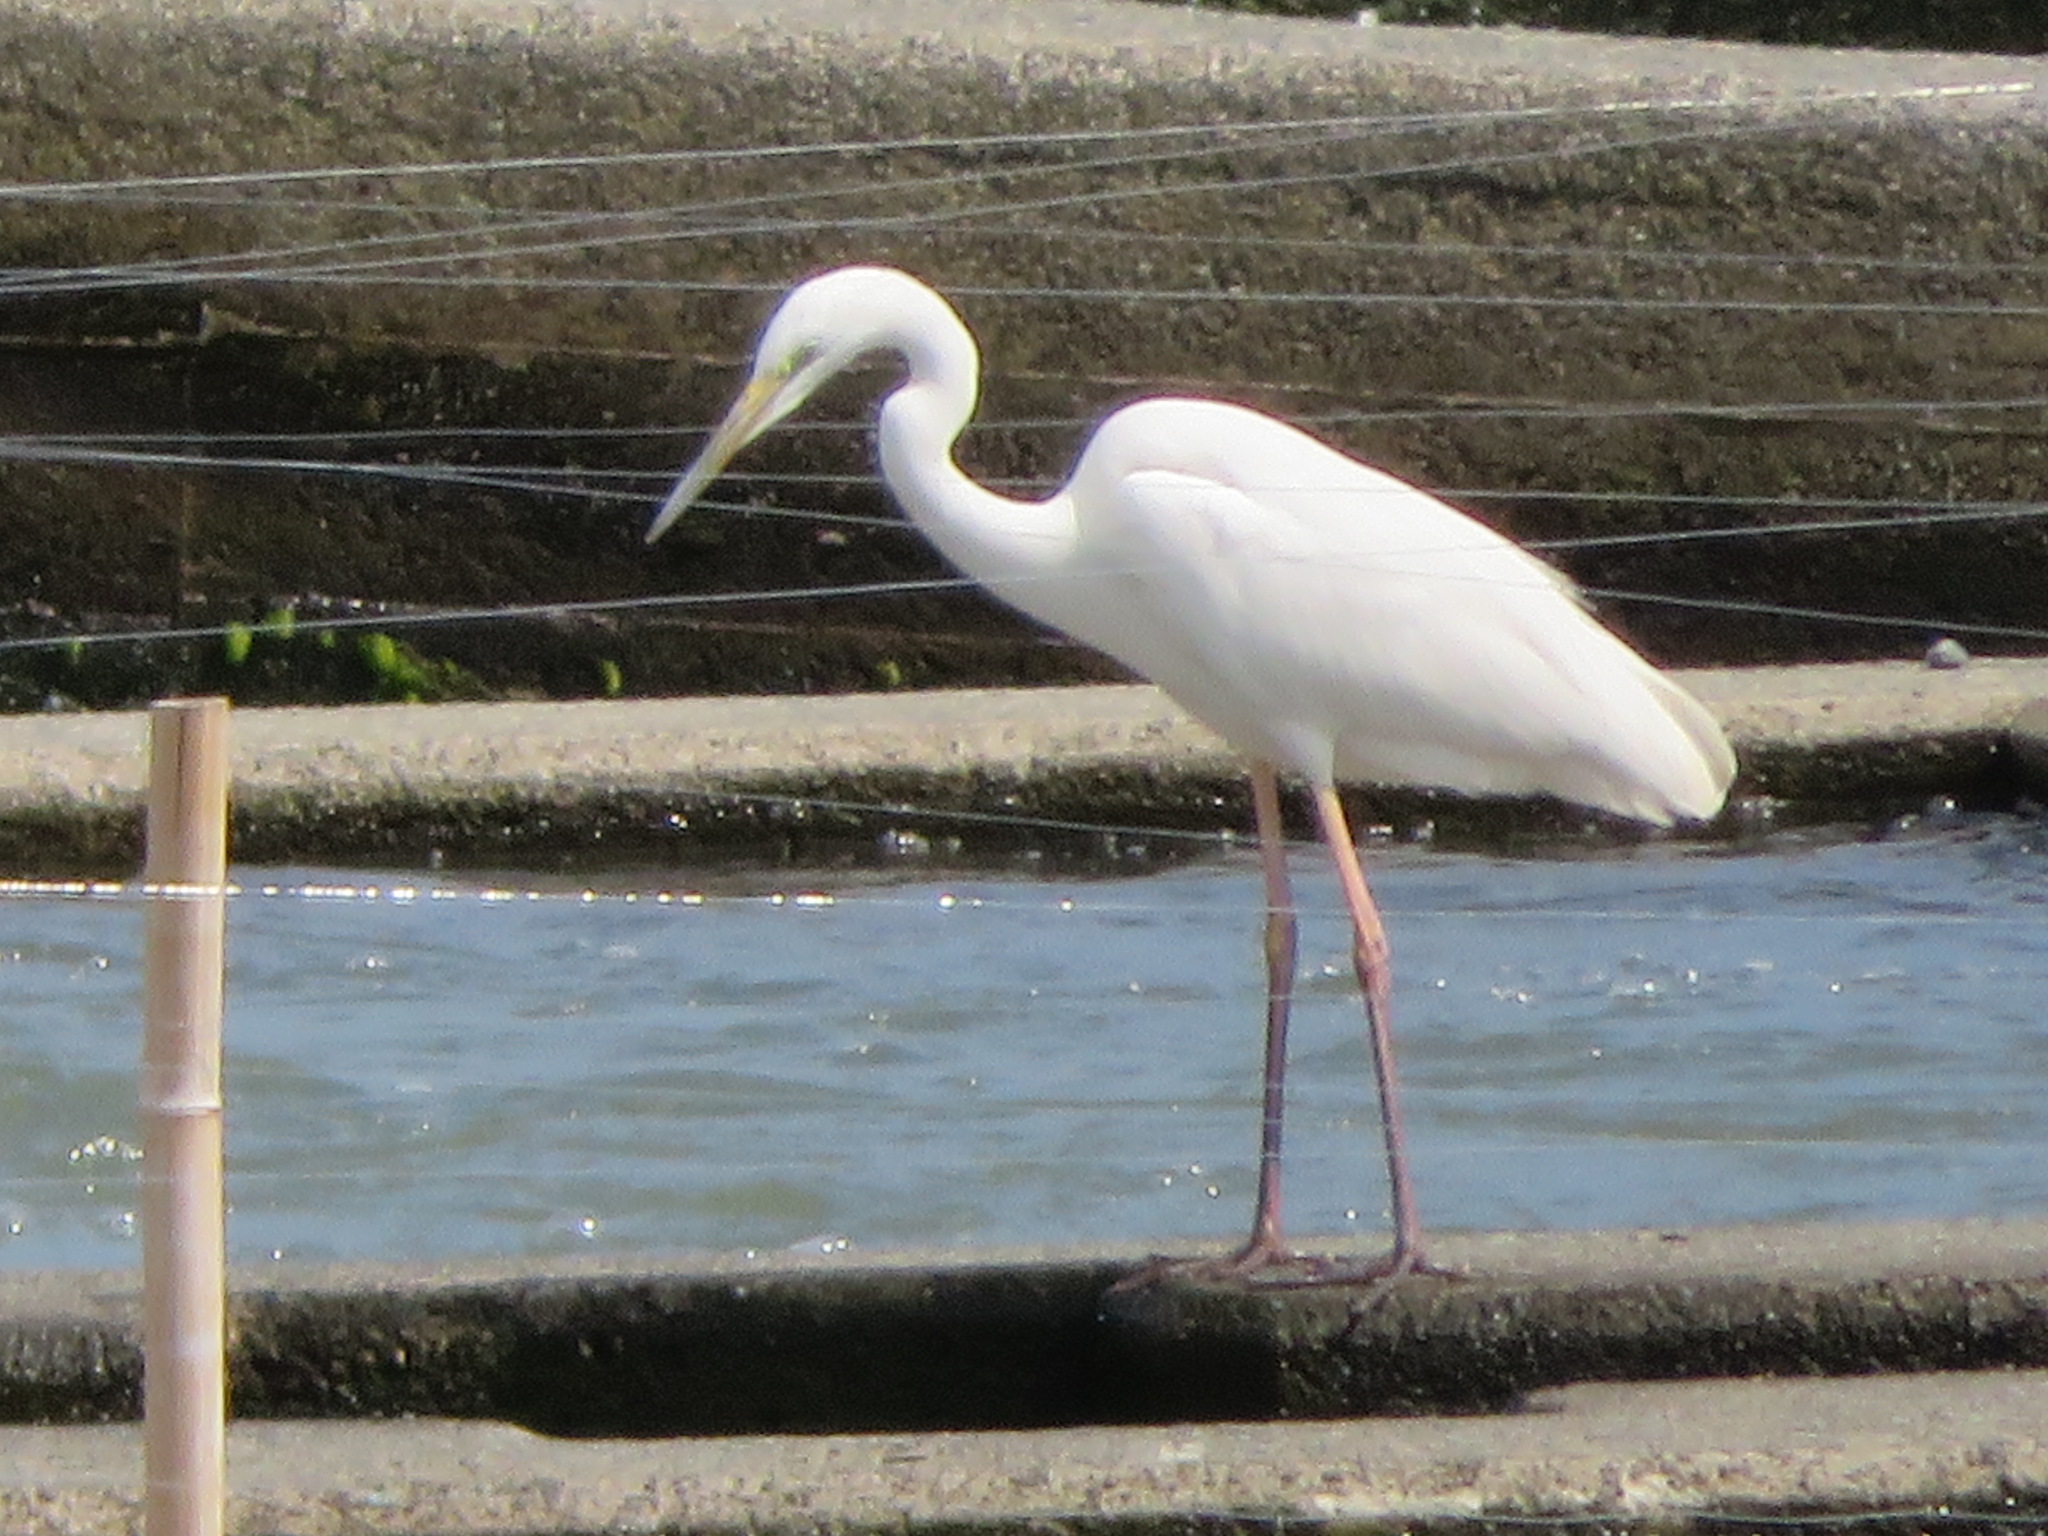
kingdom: Animalia
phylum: Chordata
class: Aves
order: Pelecaniformes
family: Ardeidae
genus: Ardea
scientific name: Ardea alba
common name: Great egret
